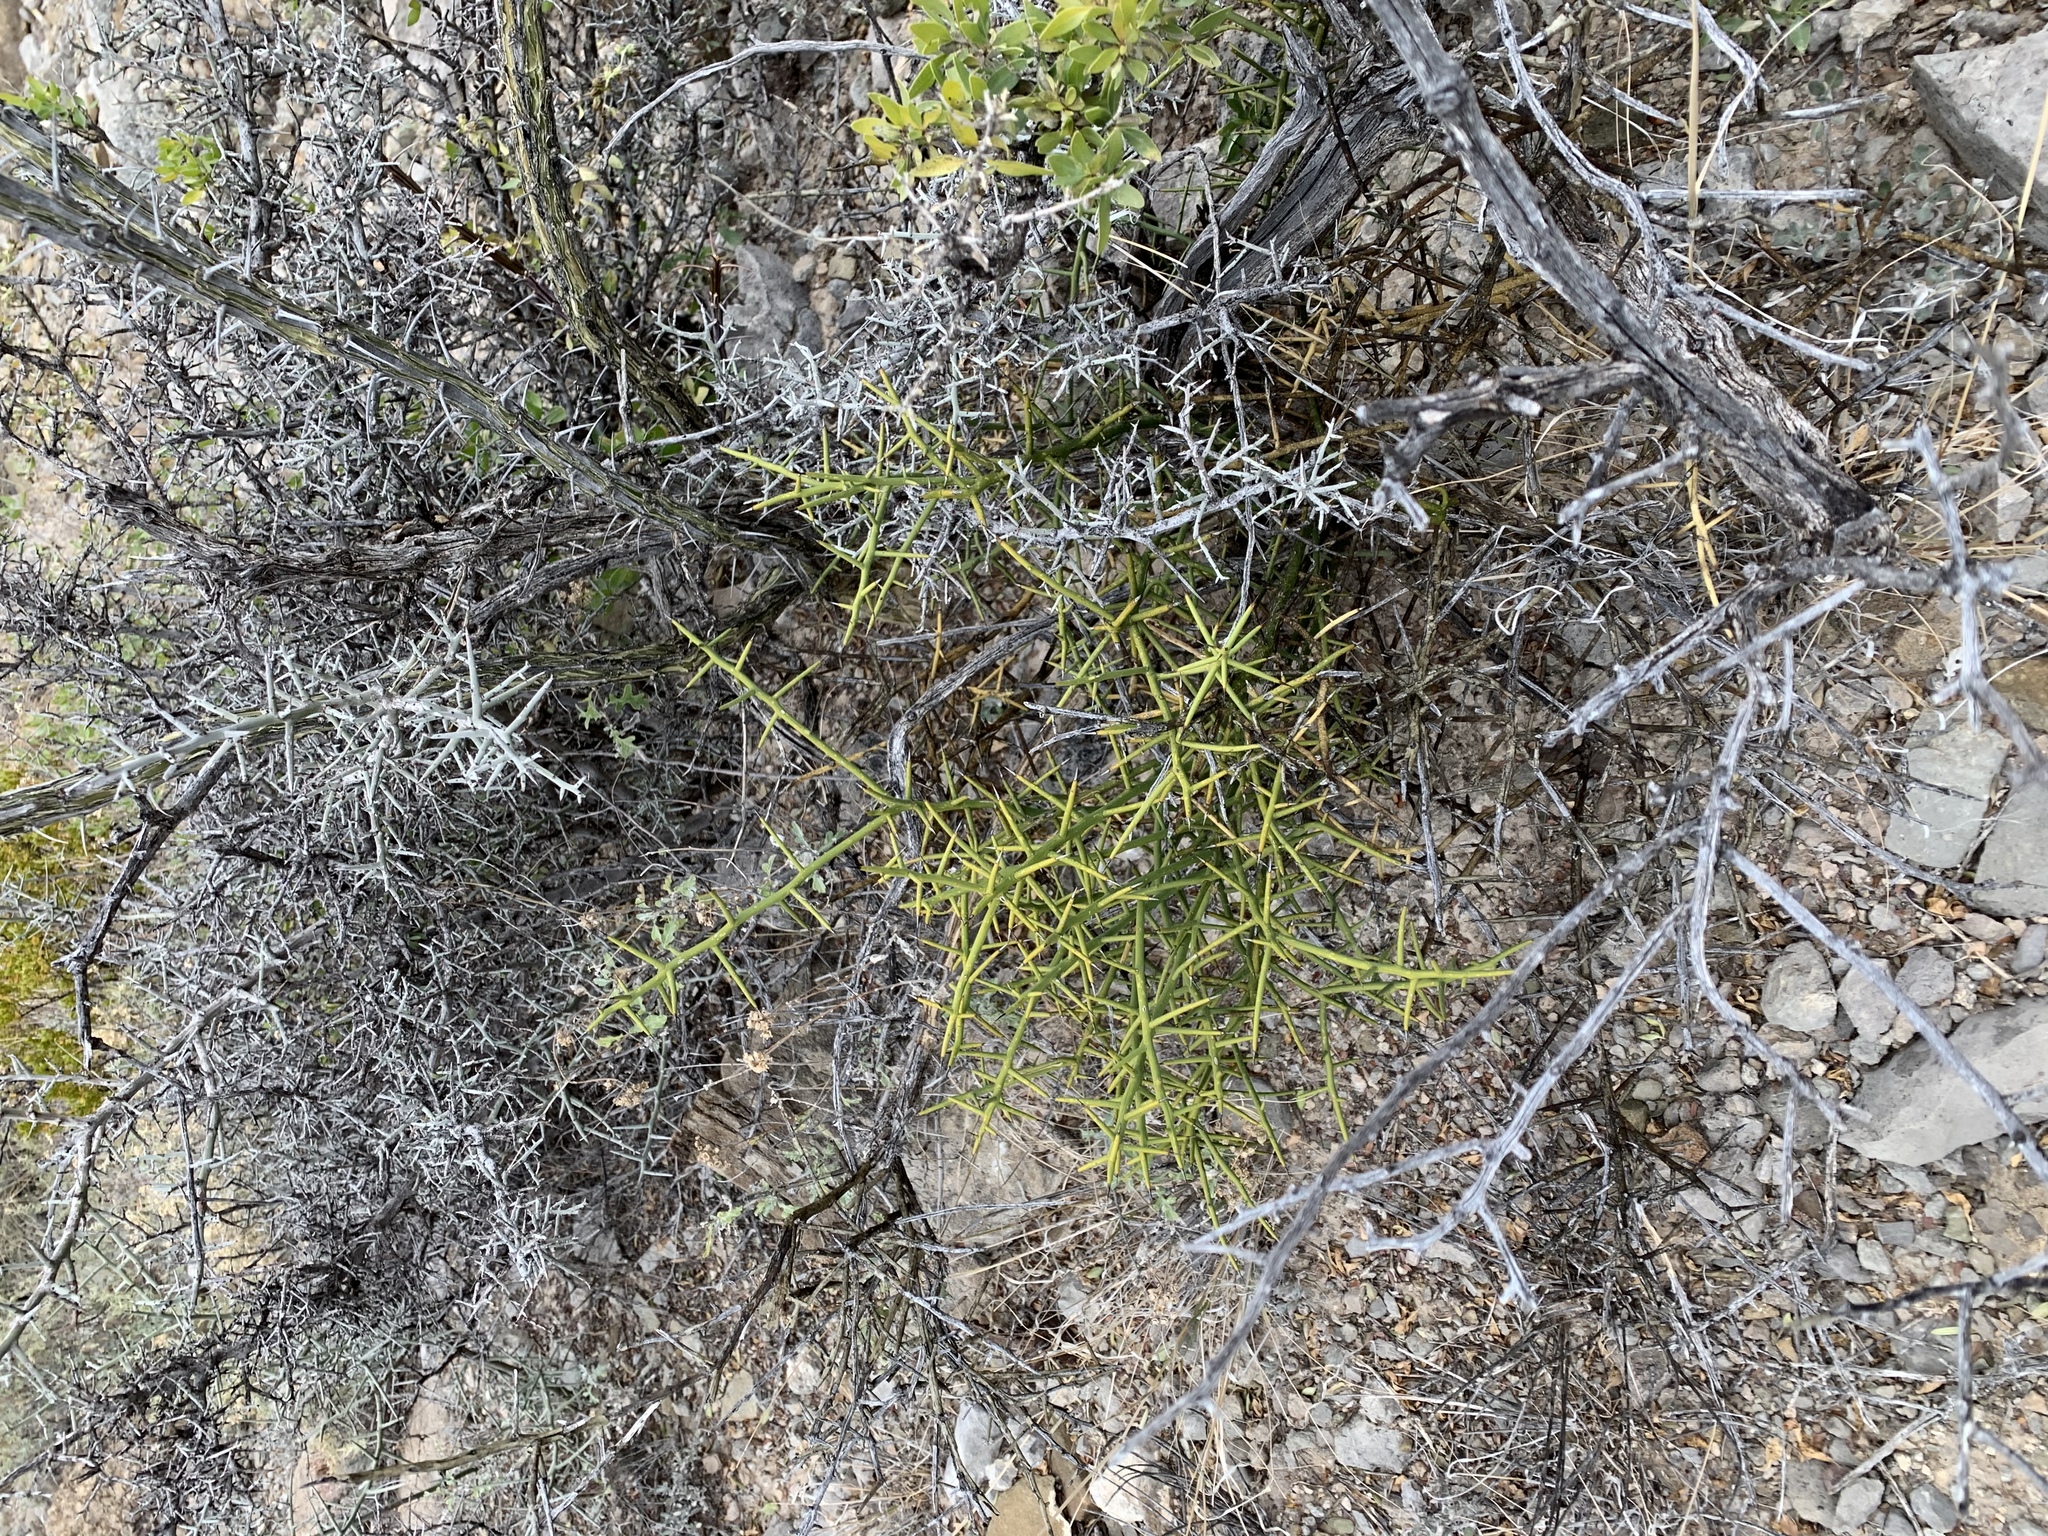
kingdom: Plantae
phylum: Tracheophyta
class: Magnoliopsida
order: Brassicales
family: Koeberliniaceae
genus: Koeberlinia
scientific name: Koeberlinia spinosa
